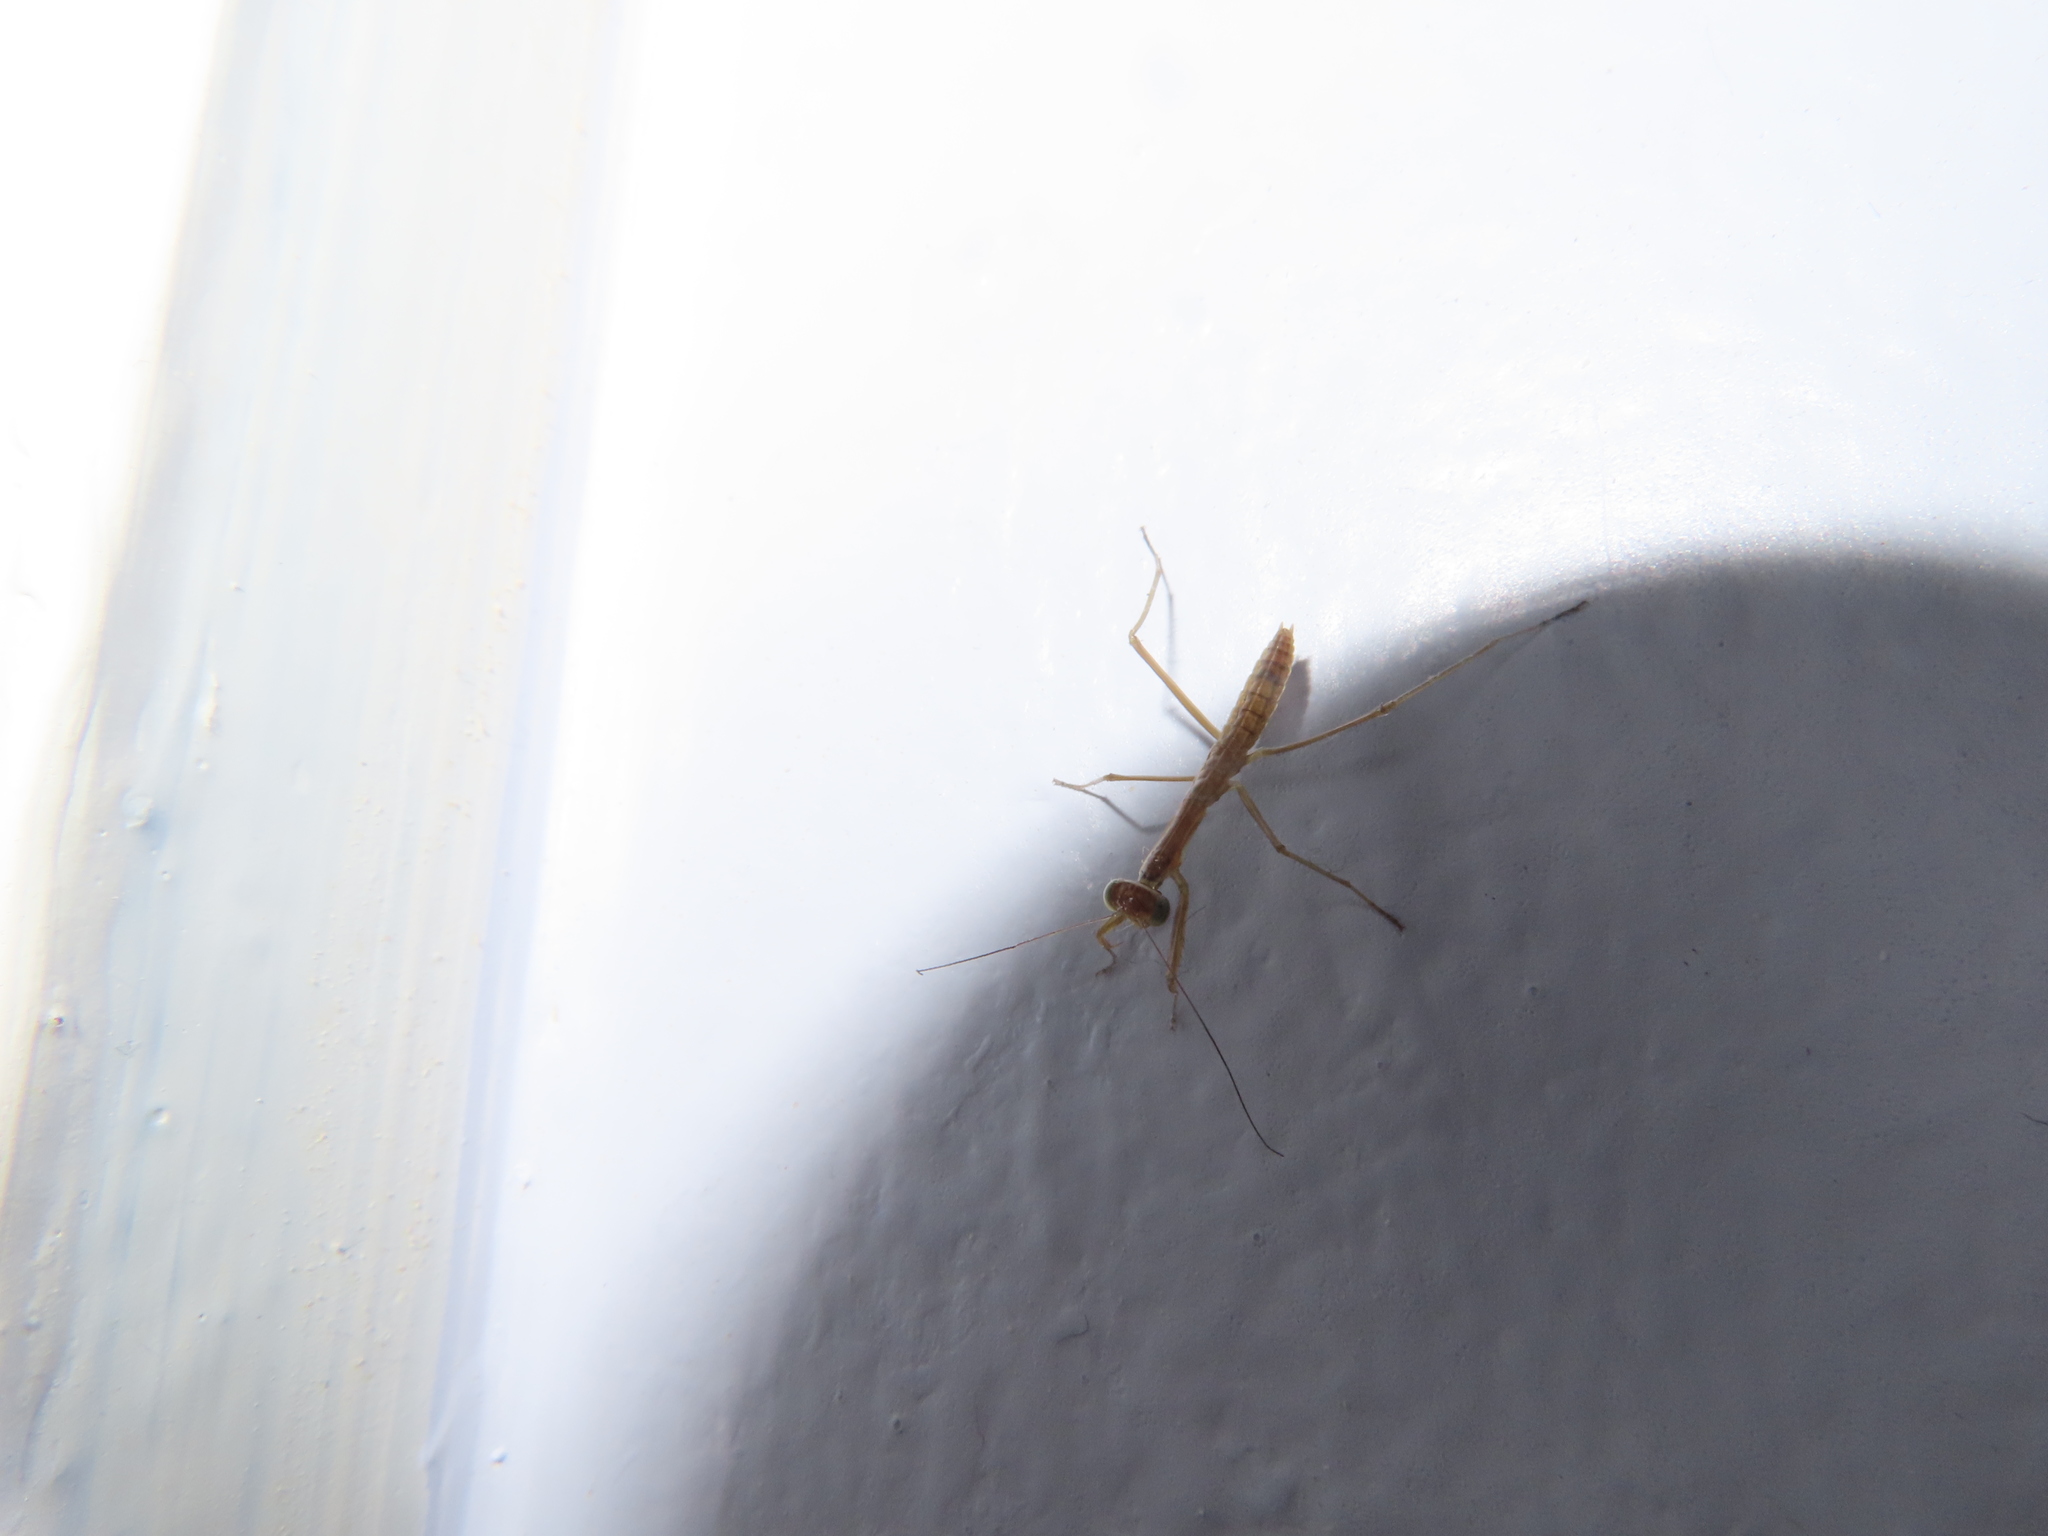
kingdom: Animalia
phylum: Arthropoda
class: Insecta
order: Mantodea
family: Mantidae
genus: Tenodera
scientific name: Tenodera sinensis
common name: Chinese mantis
